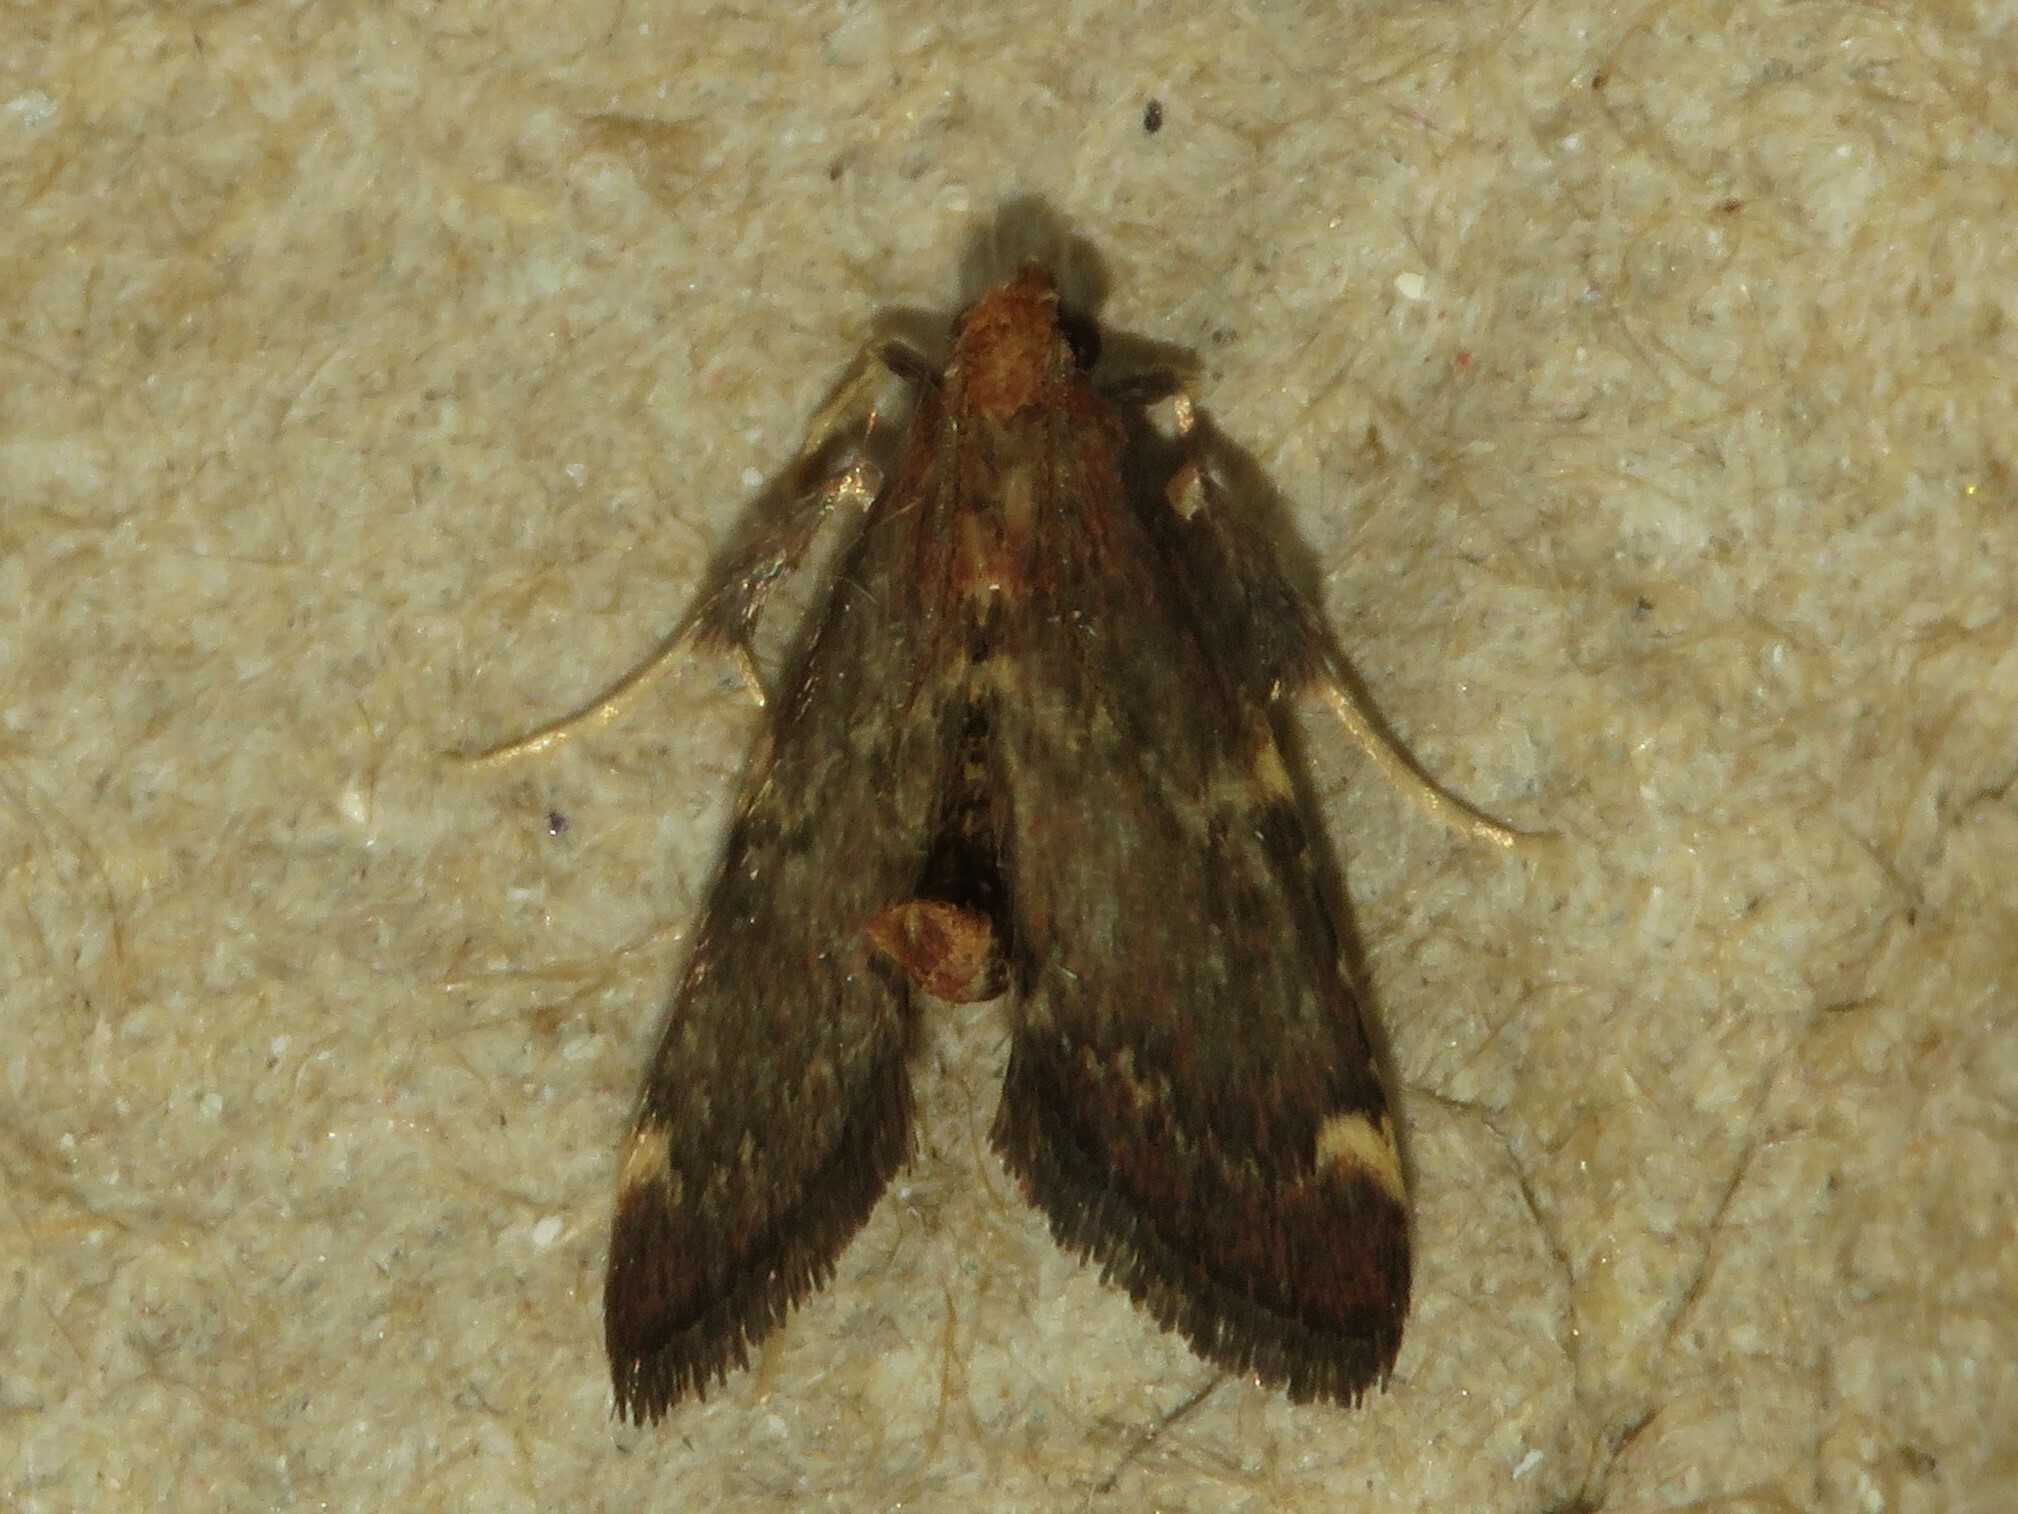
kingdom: Animalia
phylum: Arthropoda
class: Insecta
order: Lepidoptera
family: Pyralidae
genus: Hypsopygia
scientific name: Hypsopygia intermedialis
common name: Red-shawled moth
